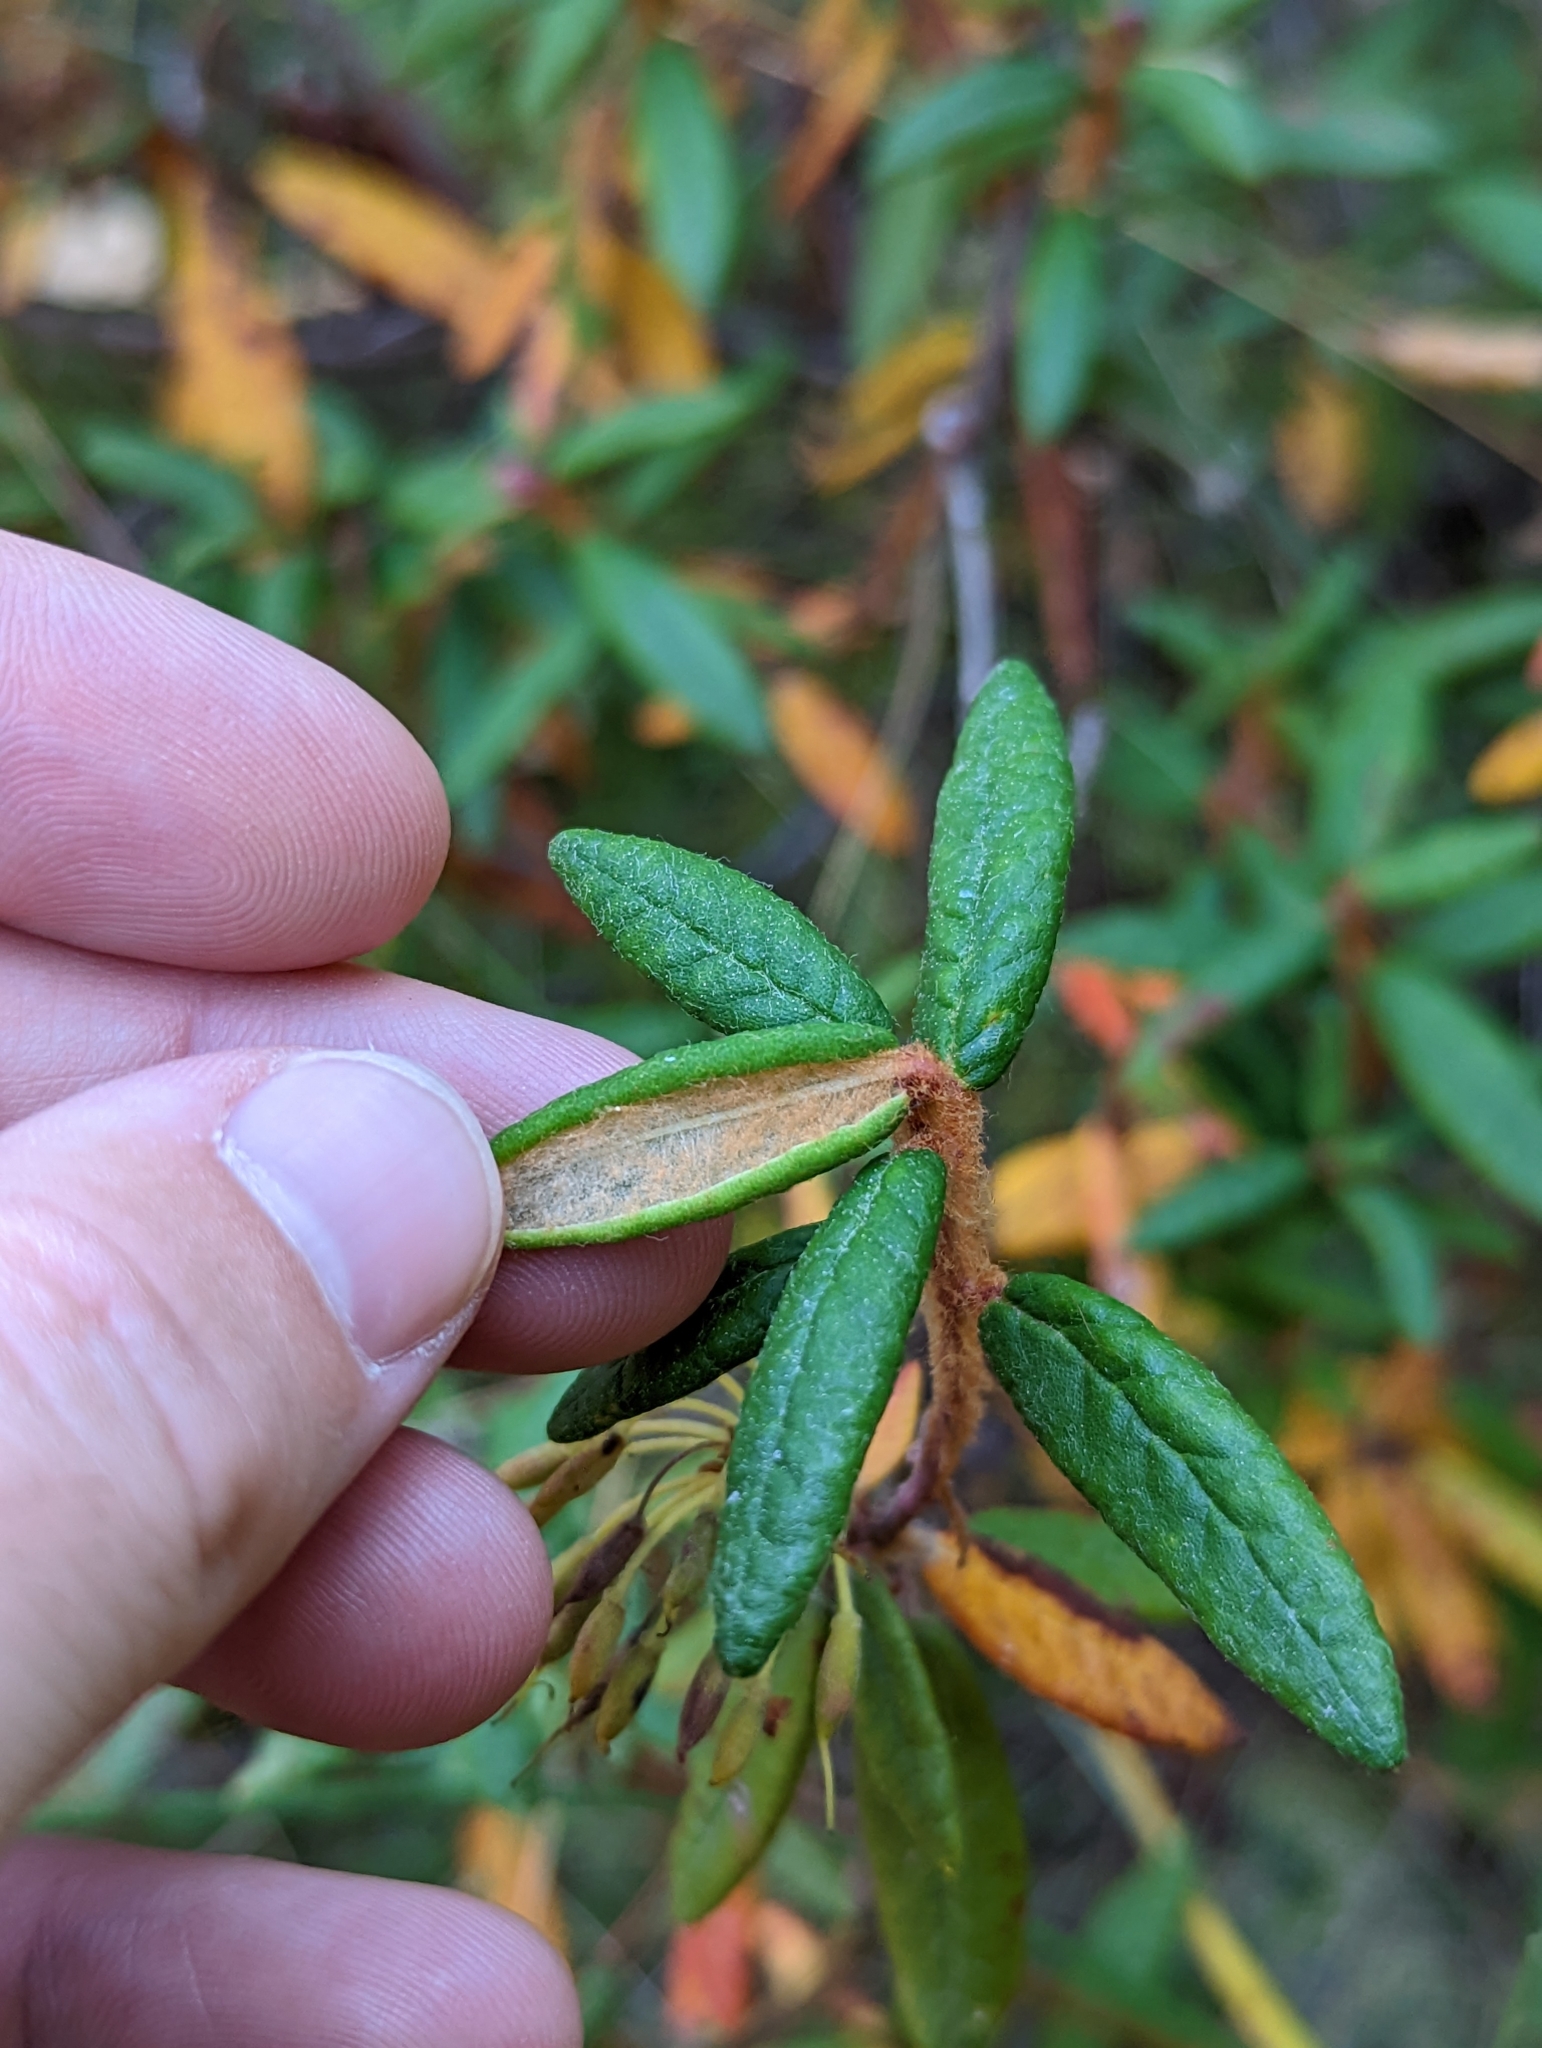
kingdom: Plantae
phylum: Tracheophyta
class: Magnoliopsida
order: Ericales
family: Ericaceae
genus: Rhododendron
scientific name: Rhododendron groenlandicum
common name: Bog labrador tea
